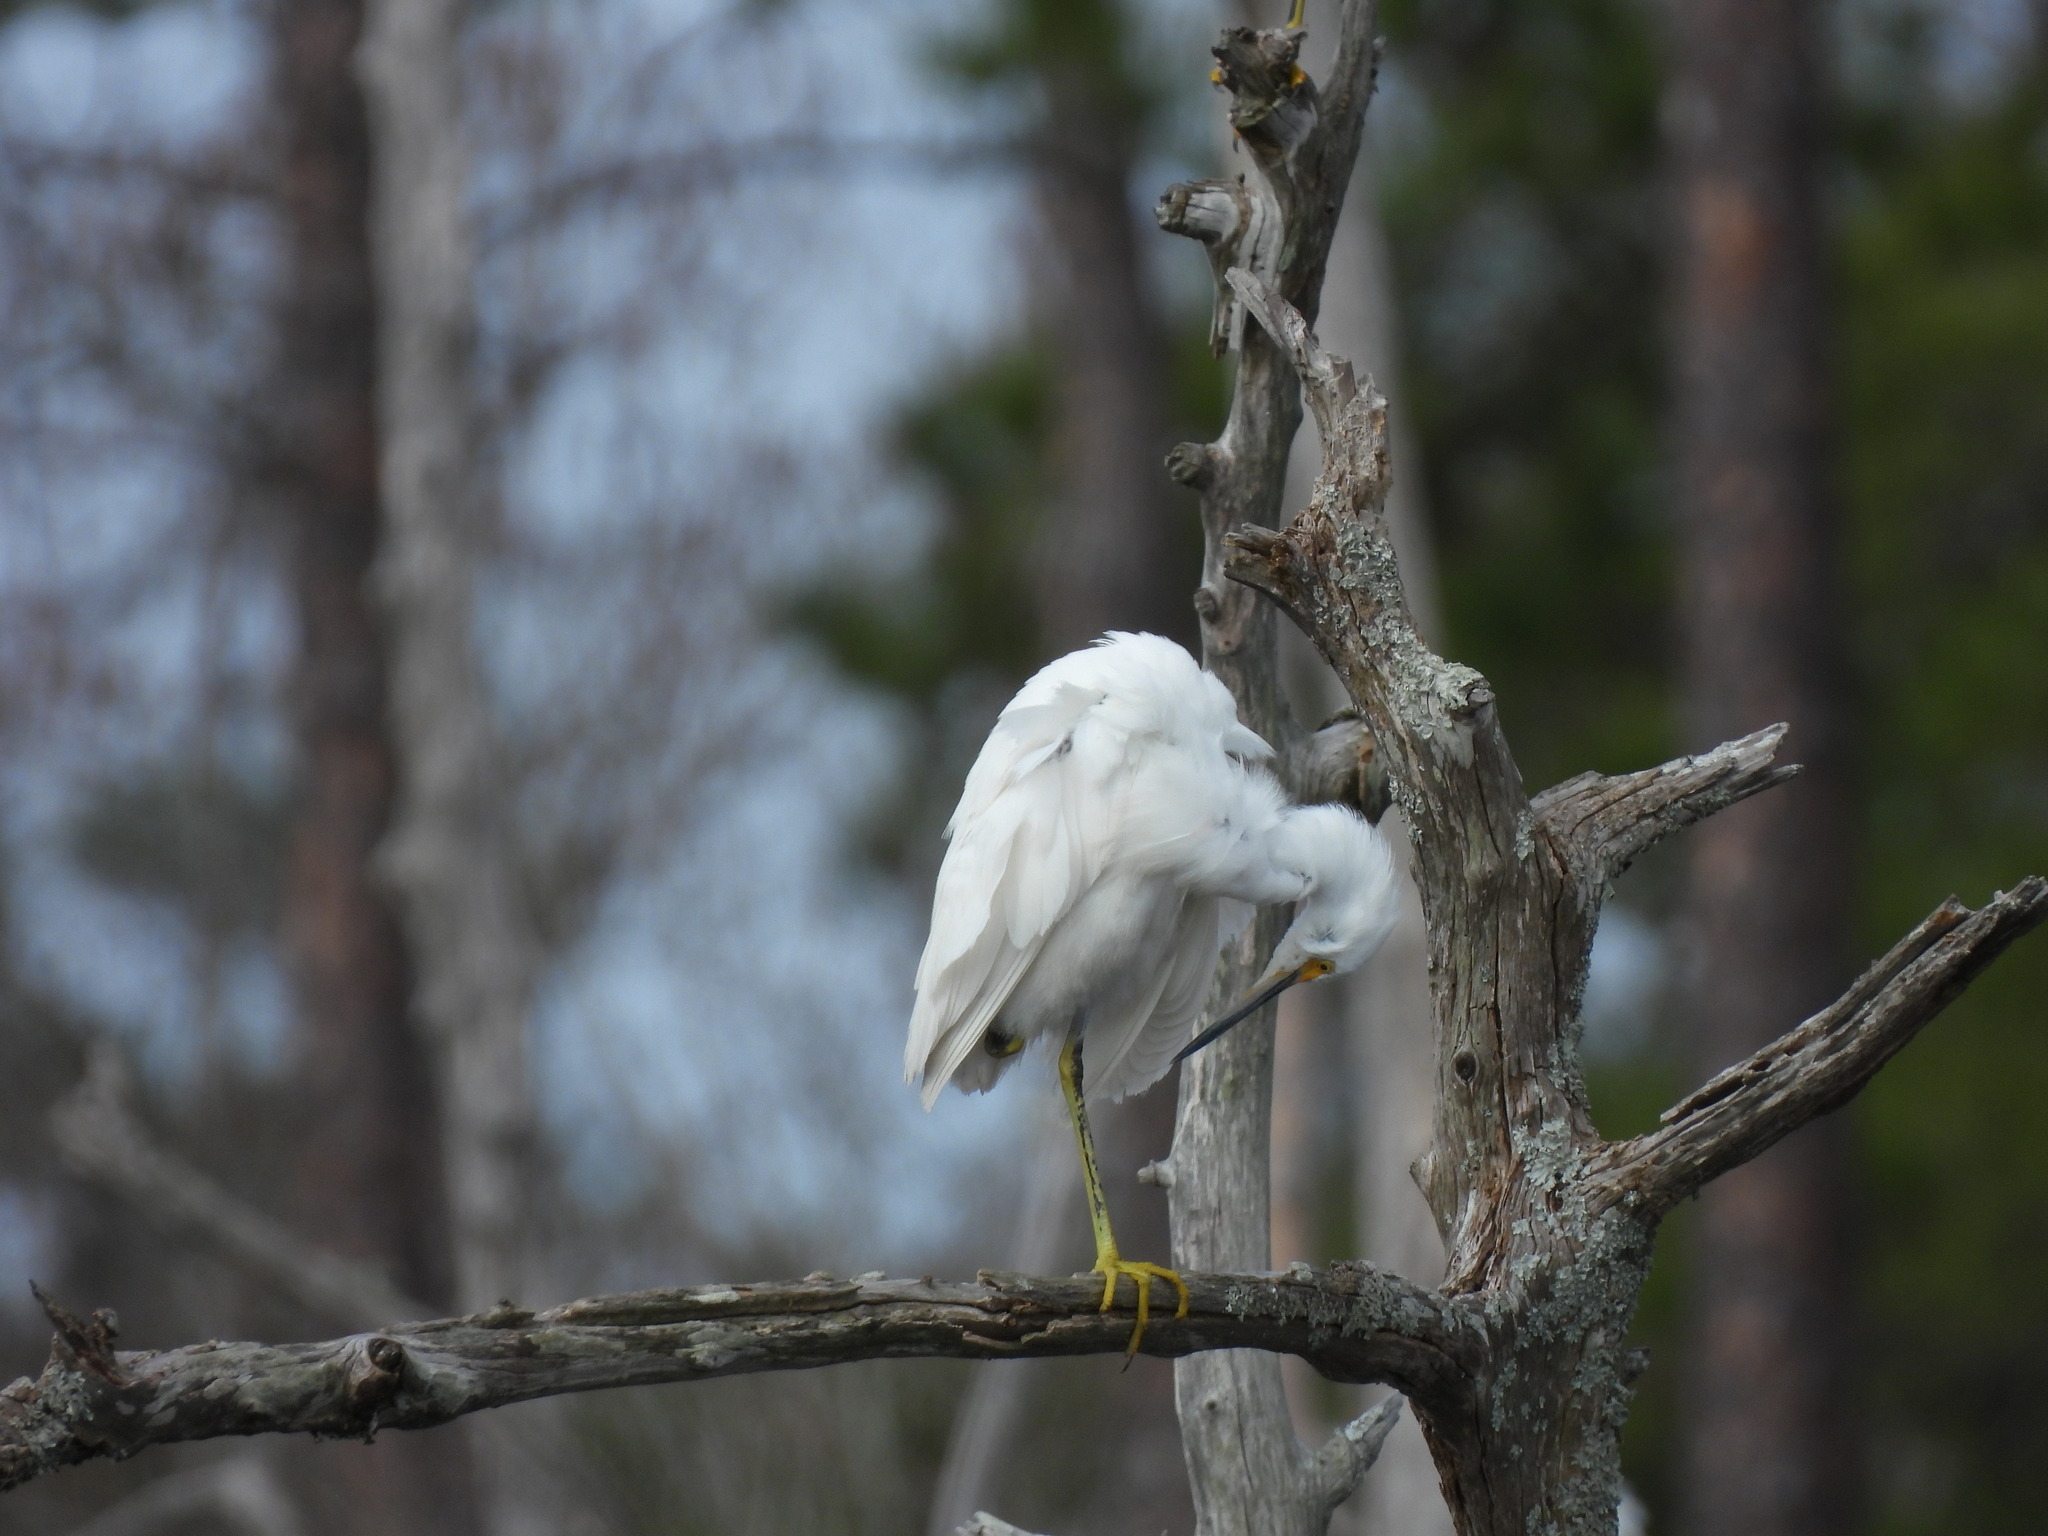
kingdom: Animalia
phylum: Chordata
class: Aves
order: Pelecaniformes
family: Ardeidae
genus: Egretta
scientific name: Egretta thula
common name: Snowy egret
